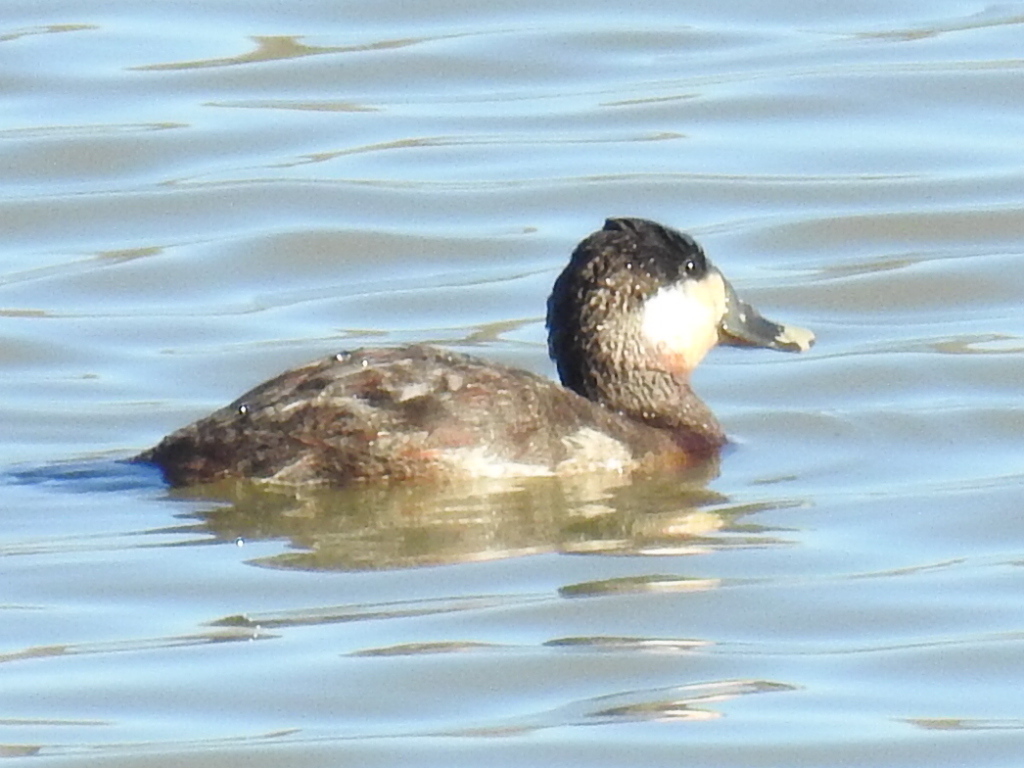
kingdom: Animalia
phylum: Chordata
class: Aves
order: Anseriformes
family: Anatidae
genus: Oxyura
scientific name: Oxyura jamaicensis
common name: Ruddy duck
